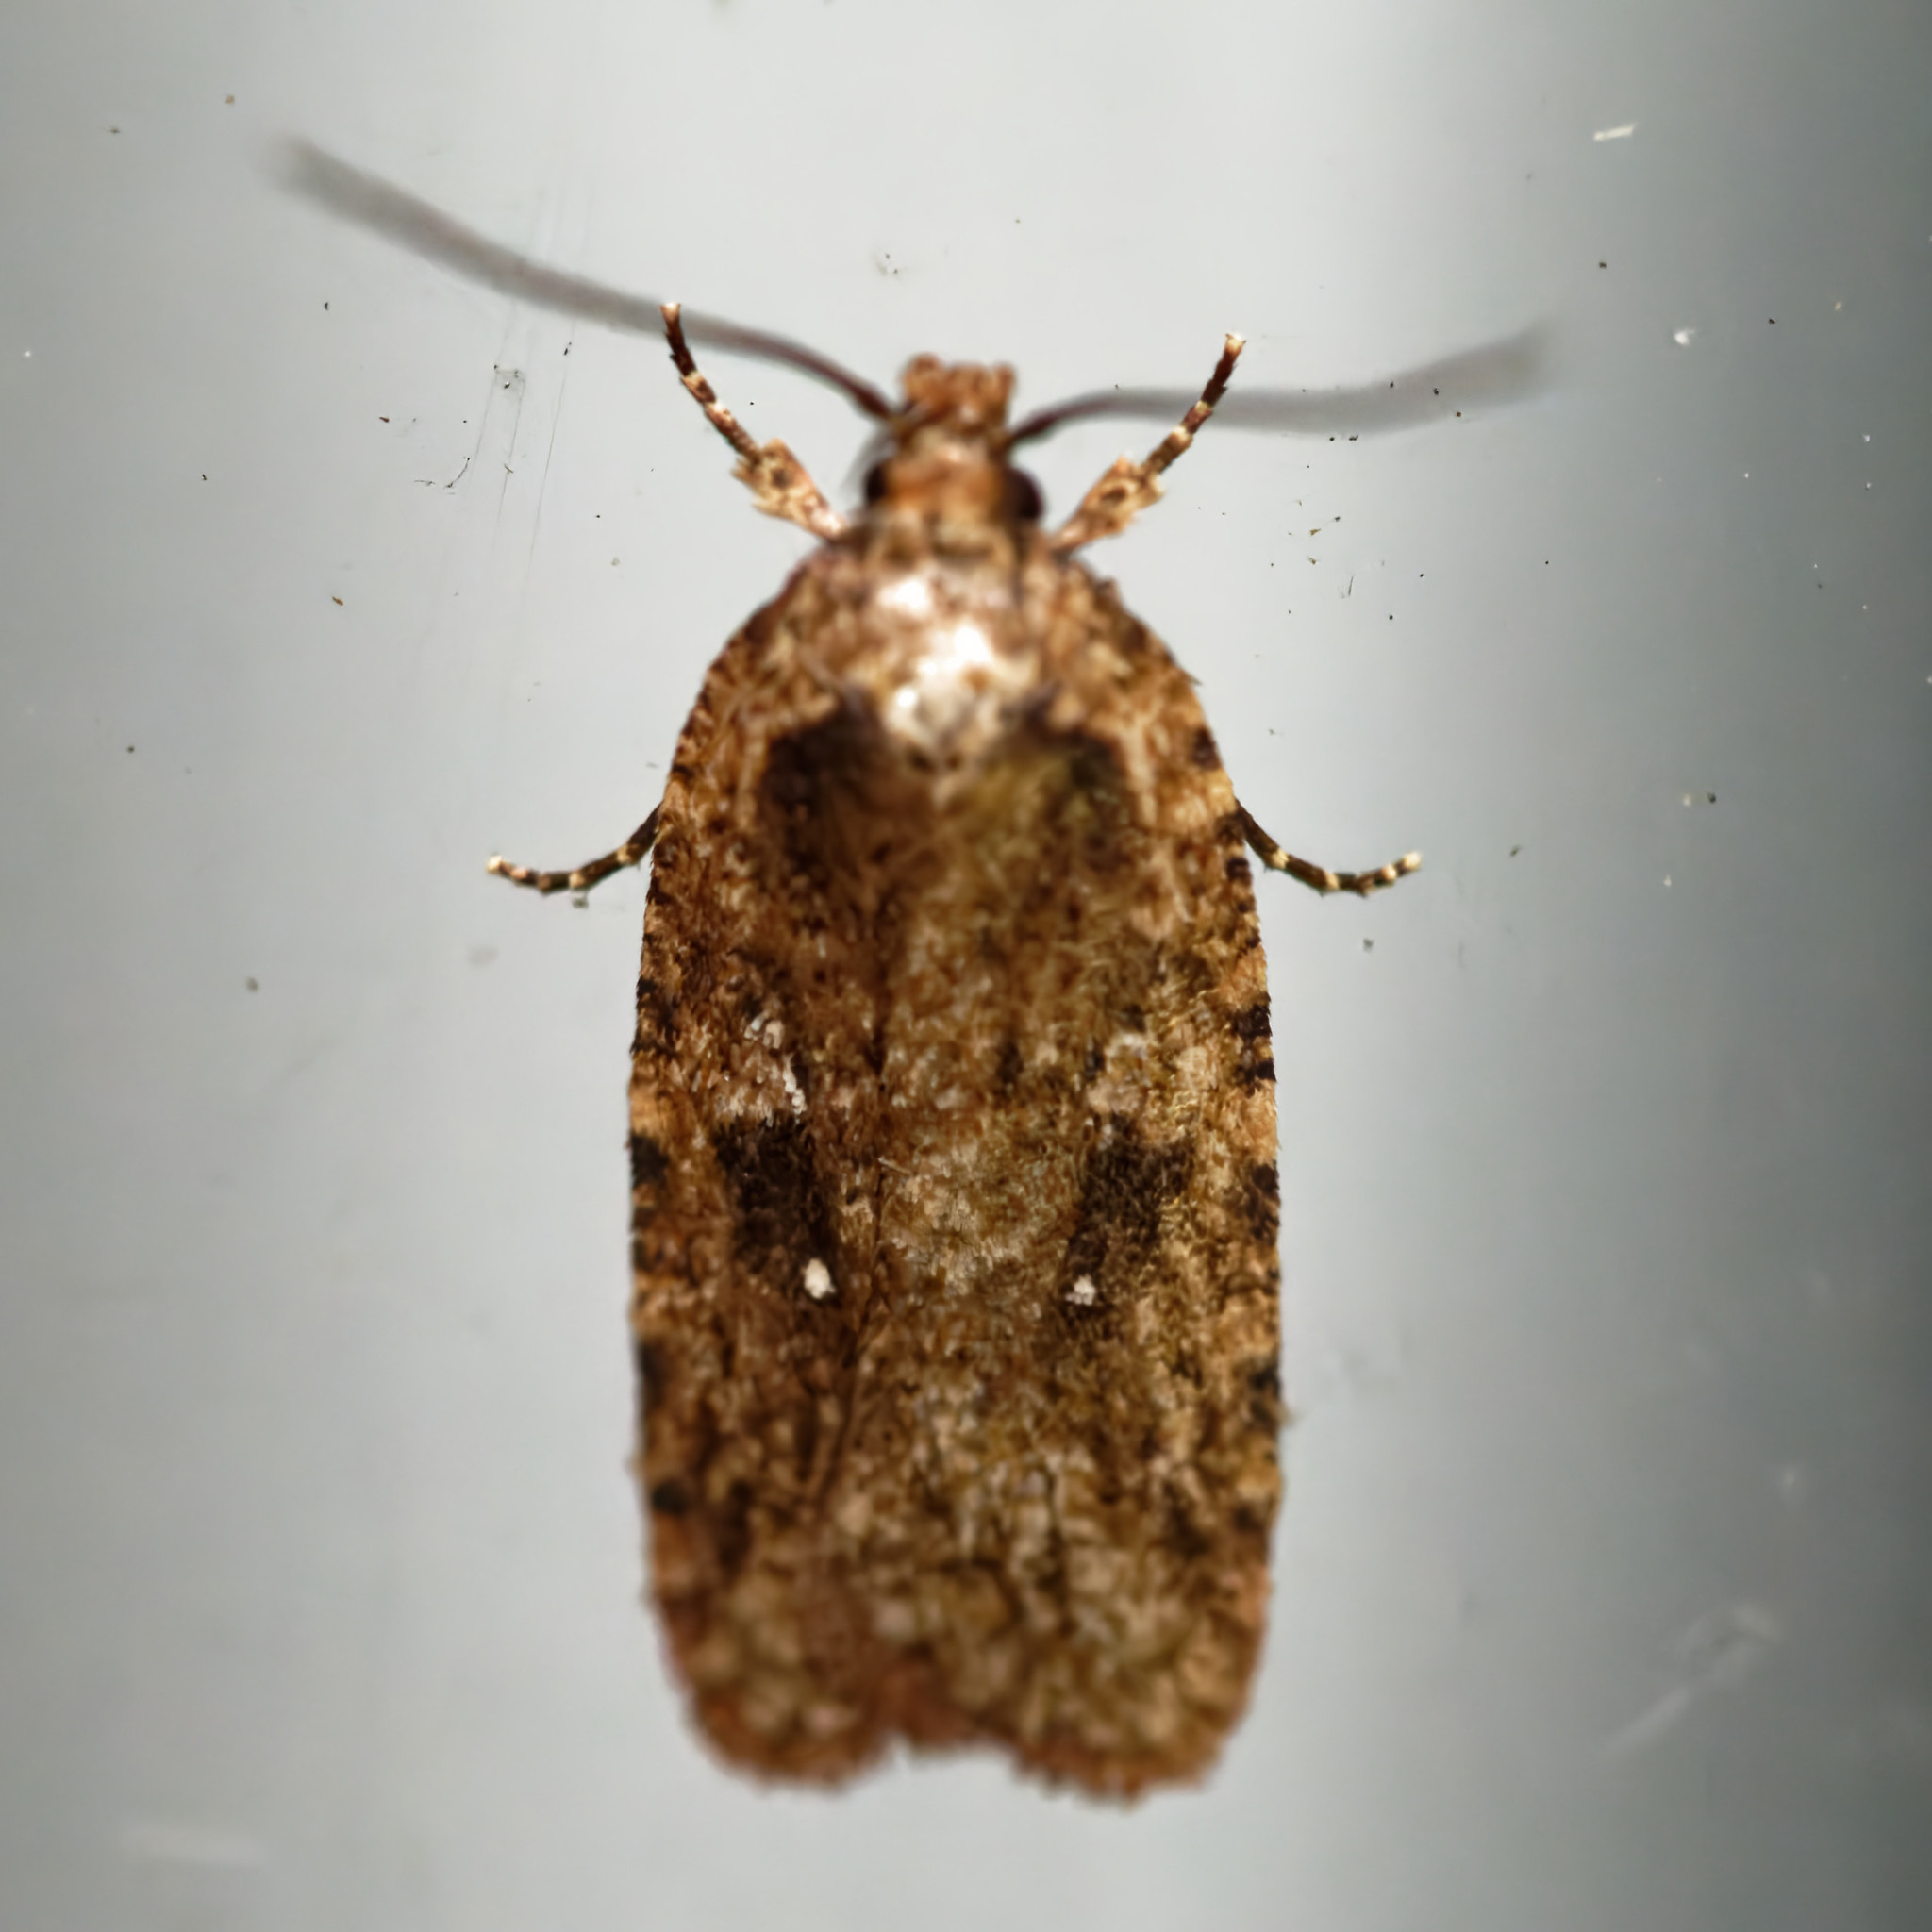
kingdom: Animalia
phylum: Arthropoda
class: Insecta
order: Lepidoptera
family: Depressariidae
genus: Agonopterix
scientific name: Agonopterix pulvipennella
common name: Goldenrod leafffolder
